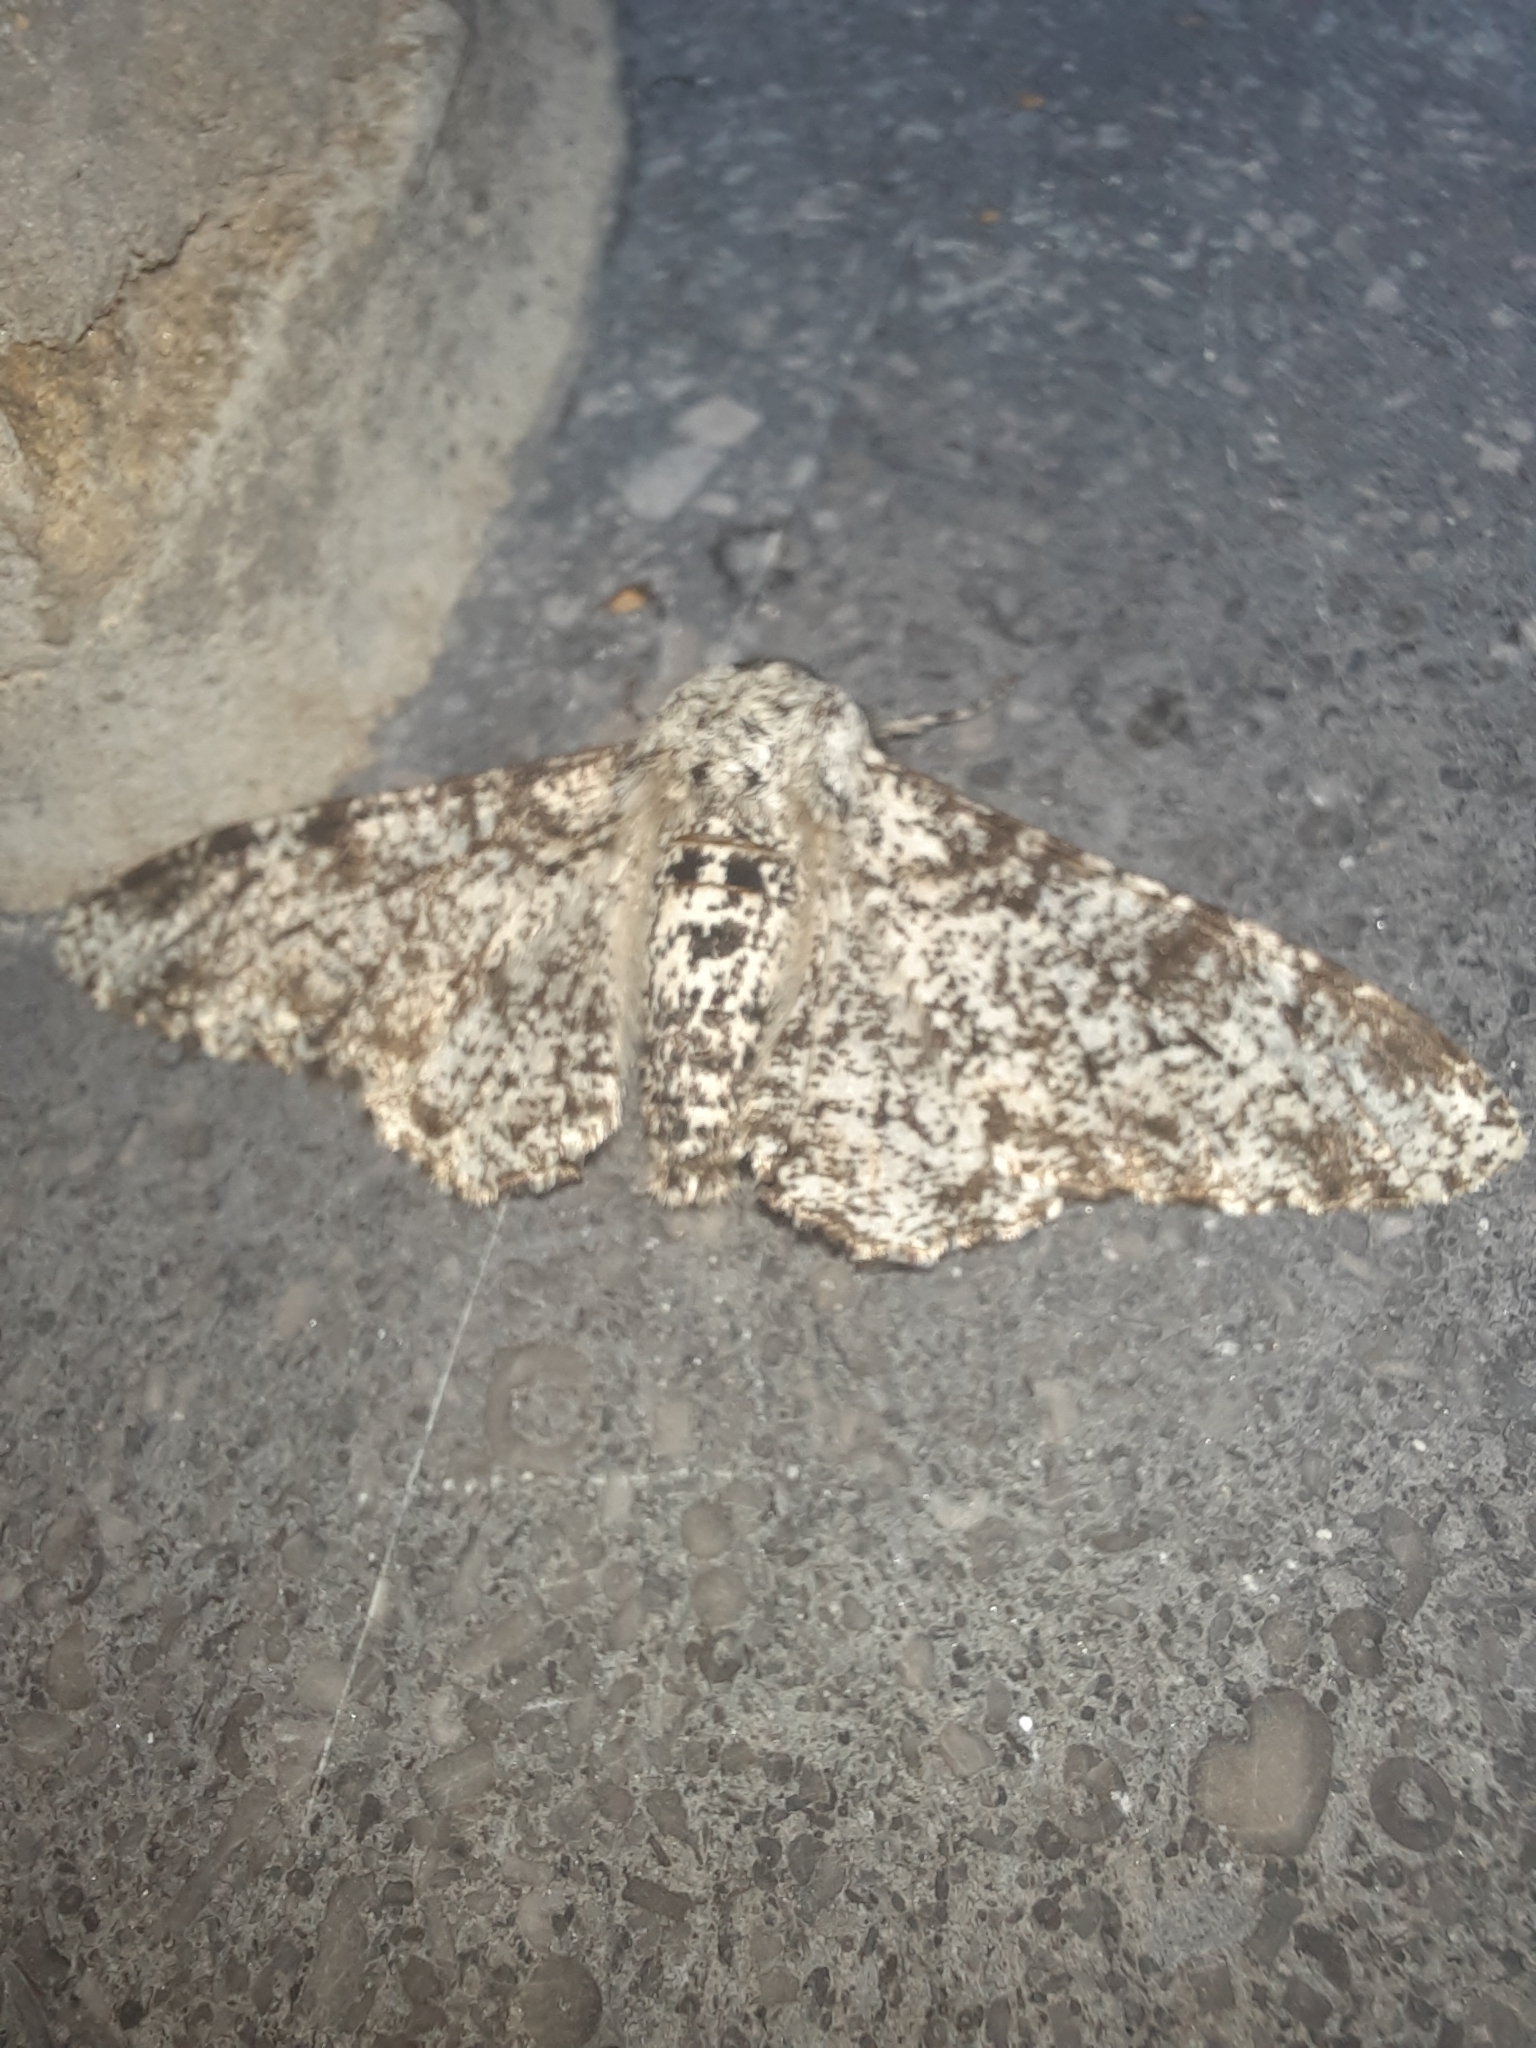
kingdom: Animalia
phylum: Arthropoda
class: Insecta
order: Lepidoptera
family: Geometridae
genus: Biston
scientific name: Biston betularia
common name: Peppered moth
